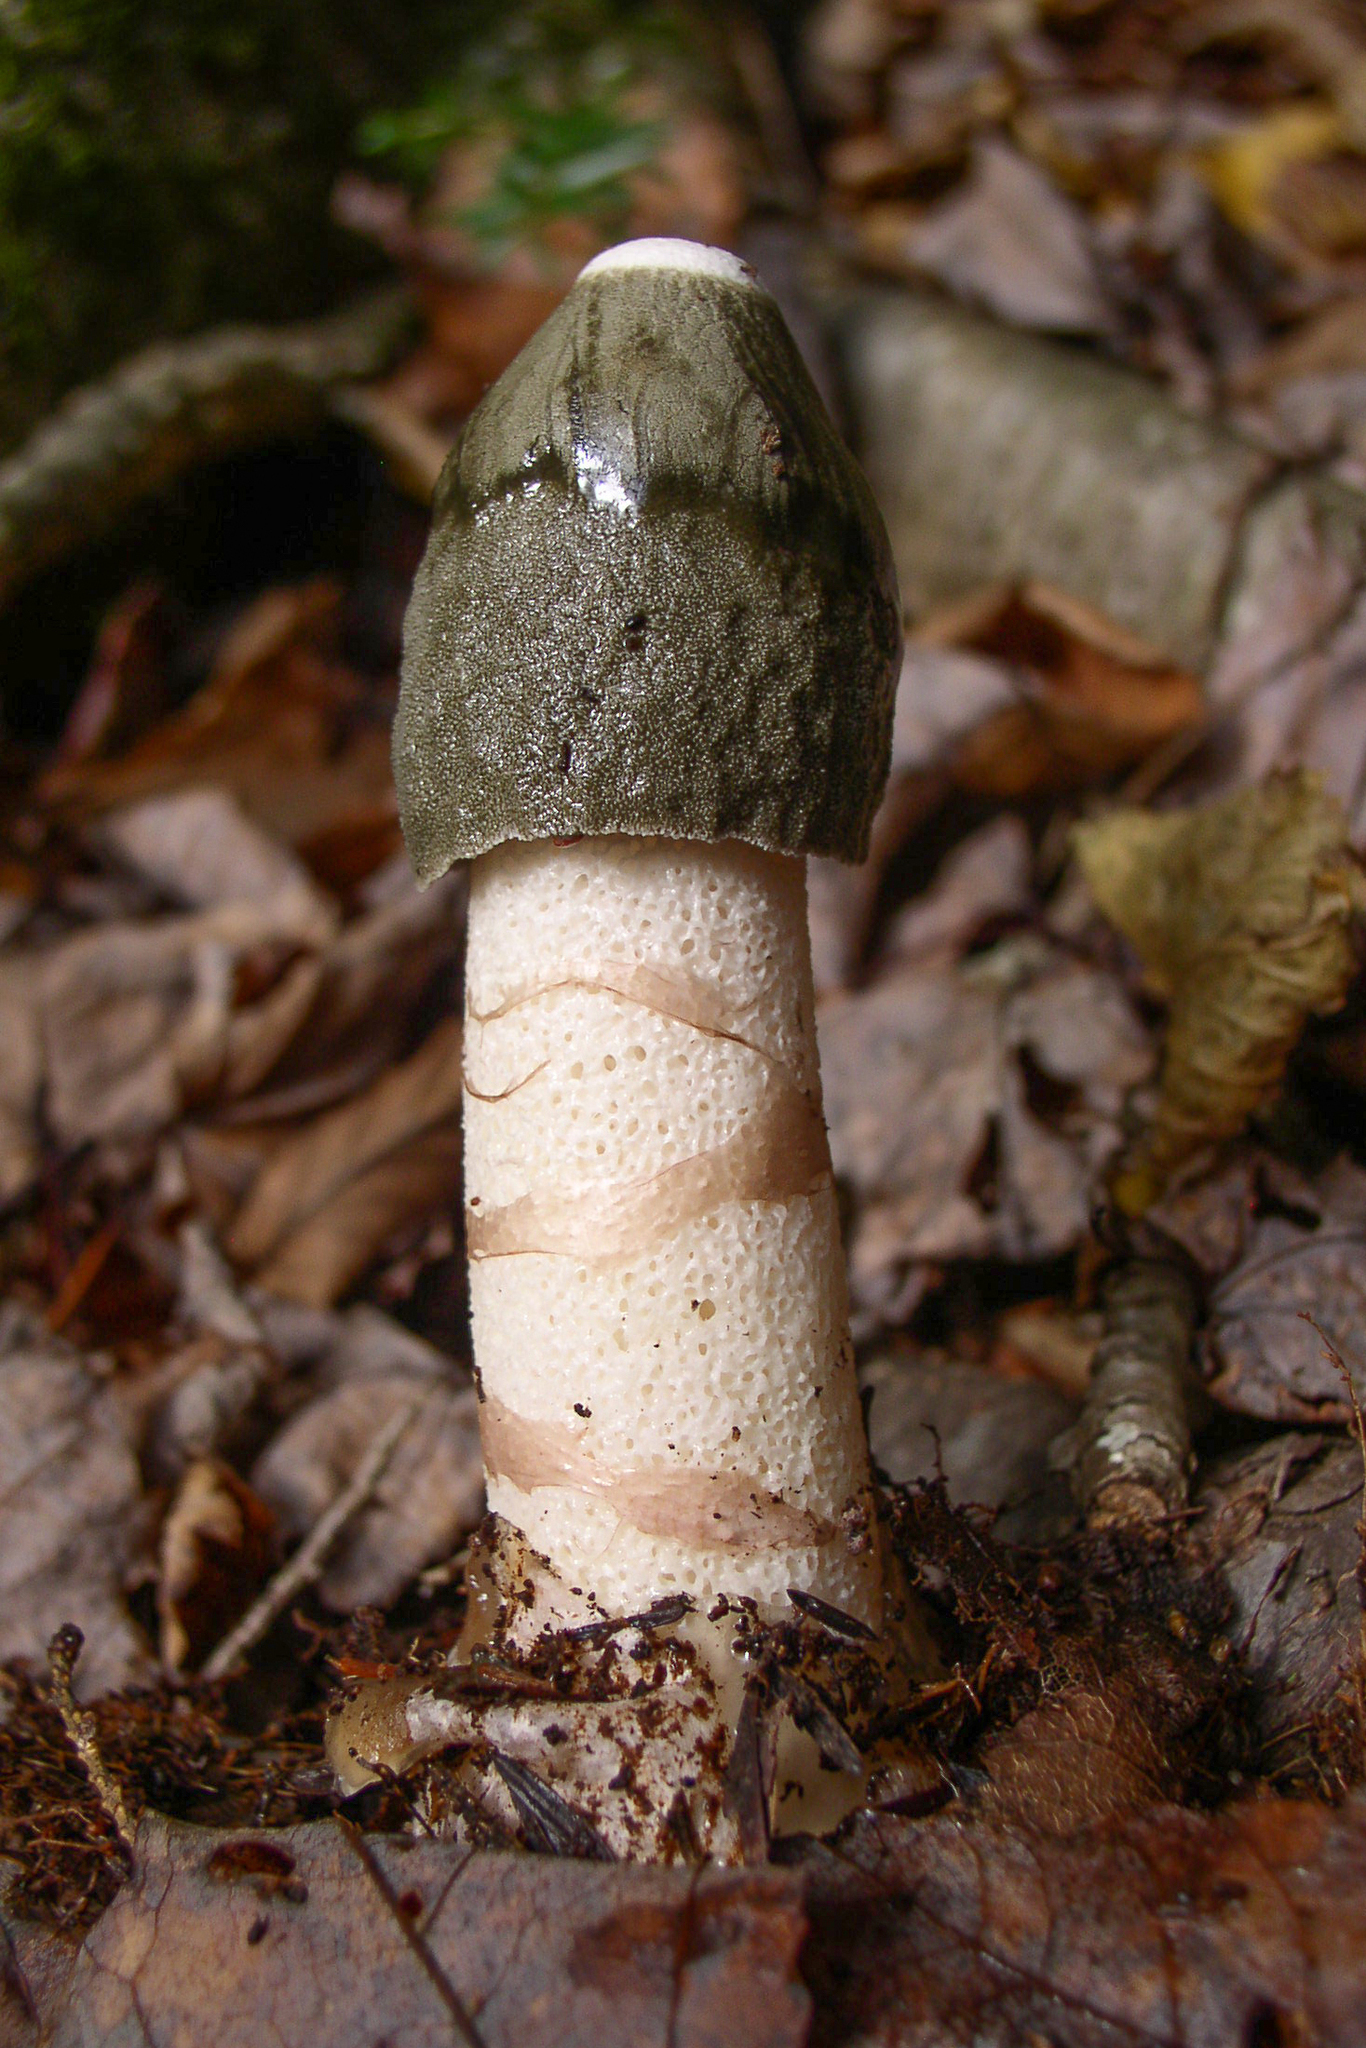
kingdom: Fungi
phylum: Basidiomycota
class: Agaricomycetes
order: Phallales
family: Phallaceae
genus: Phallus
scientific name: Phallus ravenelii
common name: Ravenel's stinkhorn
